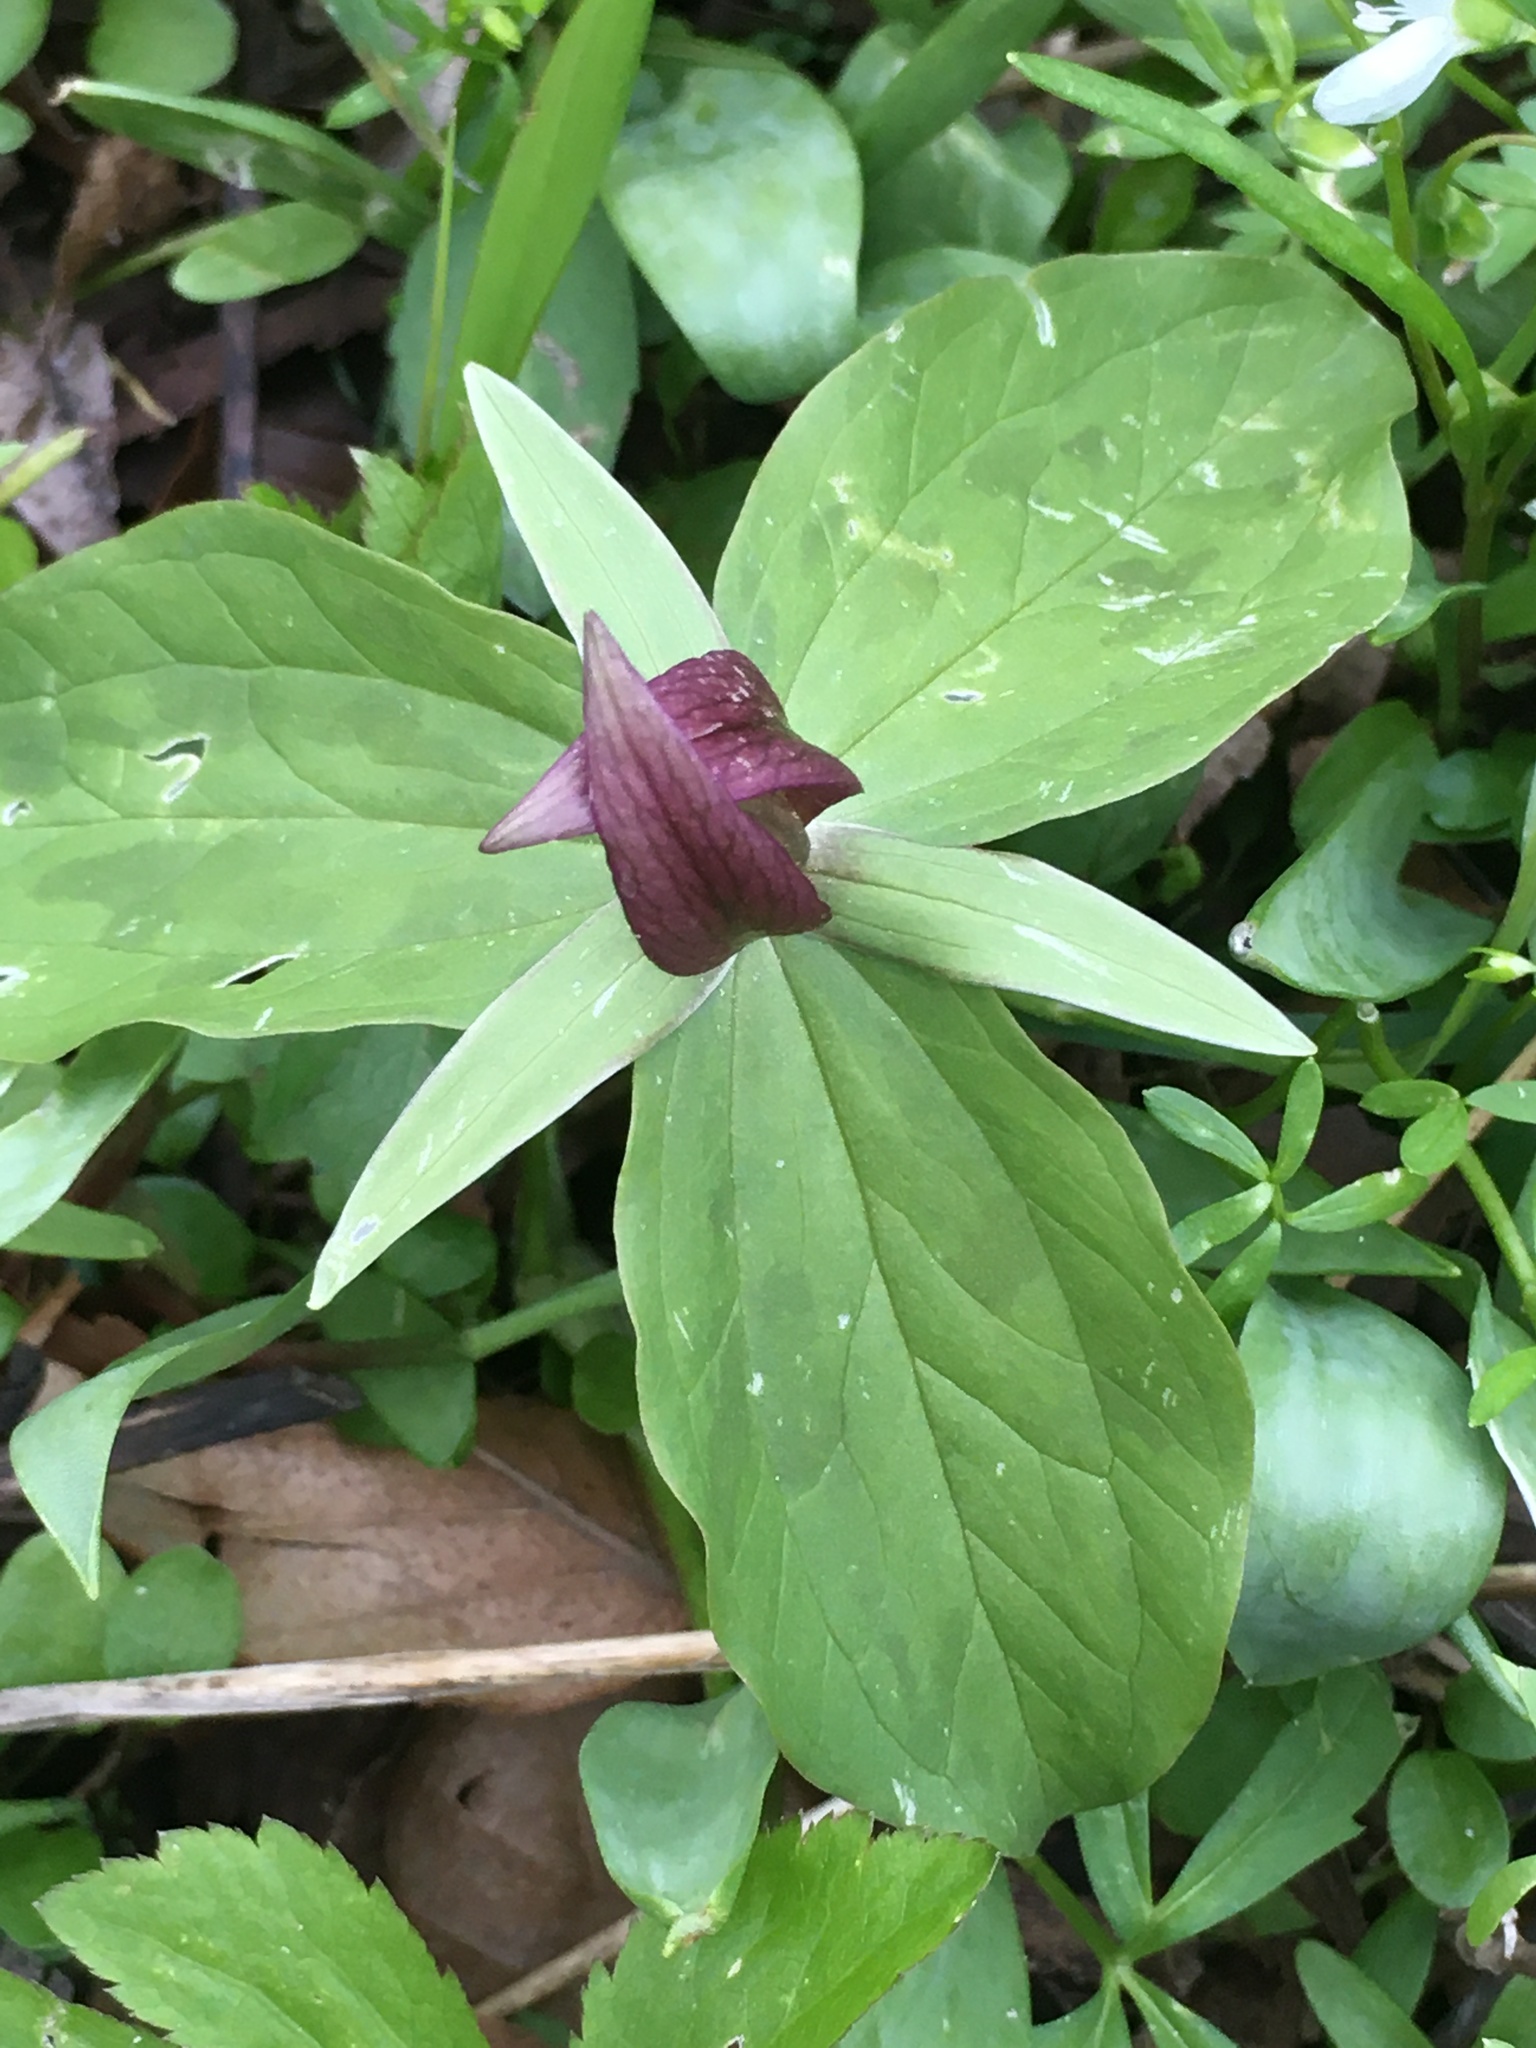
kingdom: Plantae
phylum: Tracheophyta
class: Liliopsida
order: Liliales
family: Melanthiaceae
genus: Trillium
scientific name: Trillium sessile
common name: Sessile trillium
